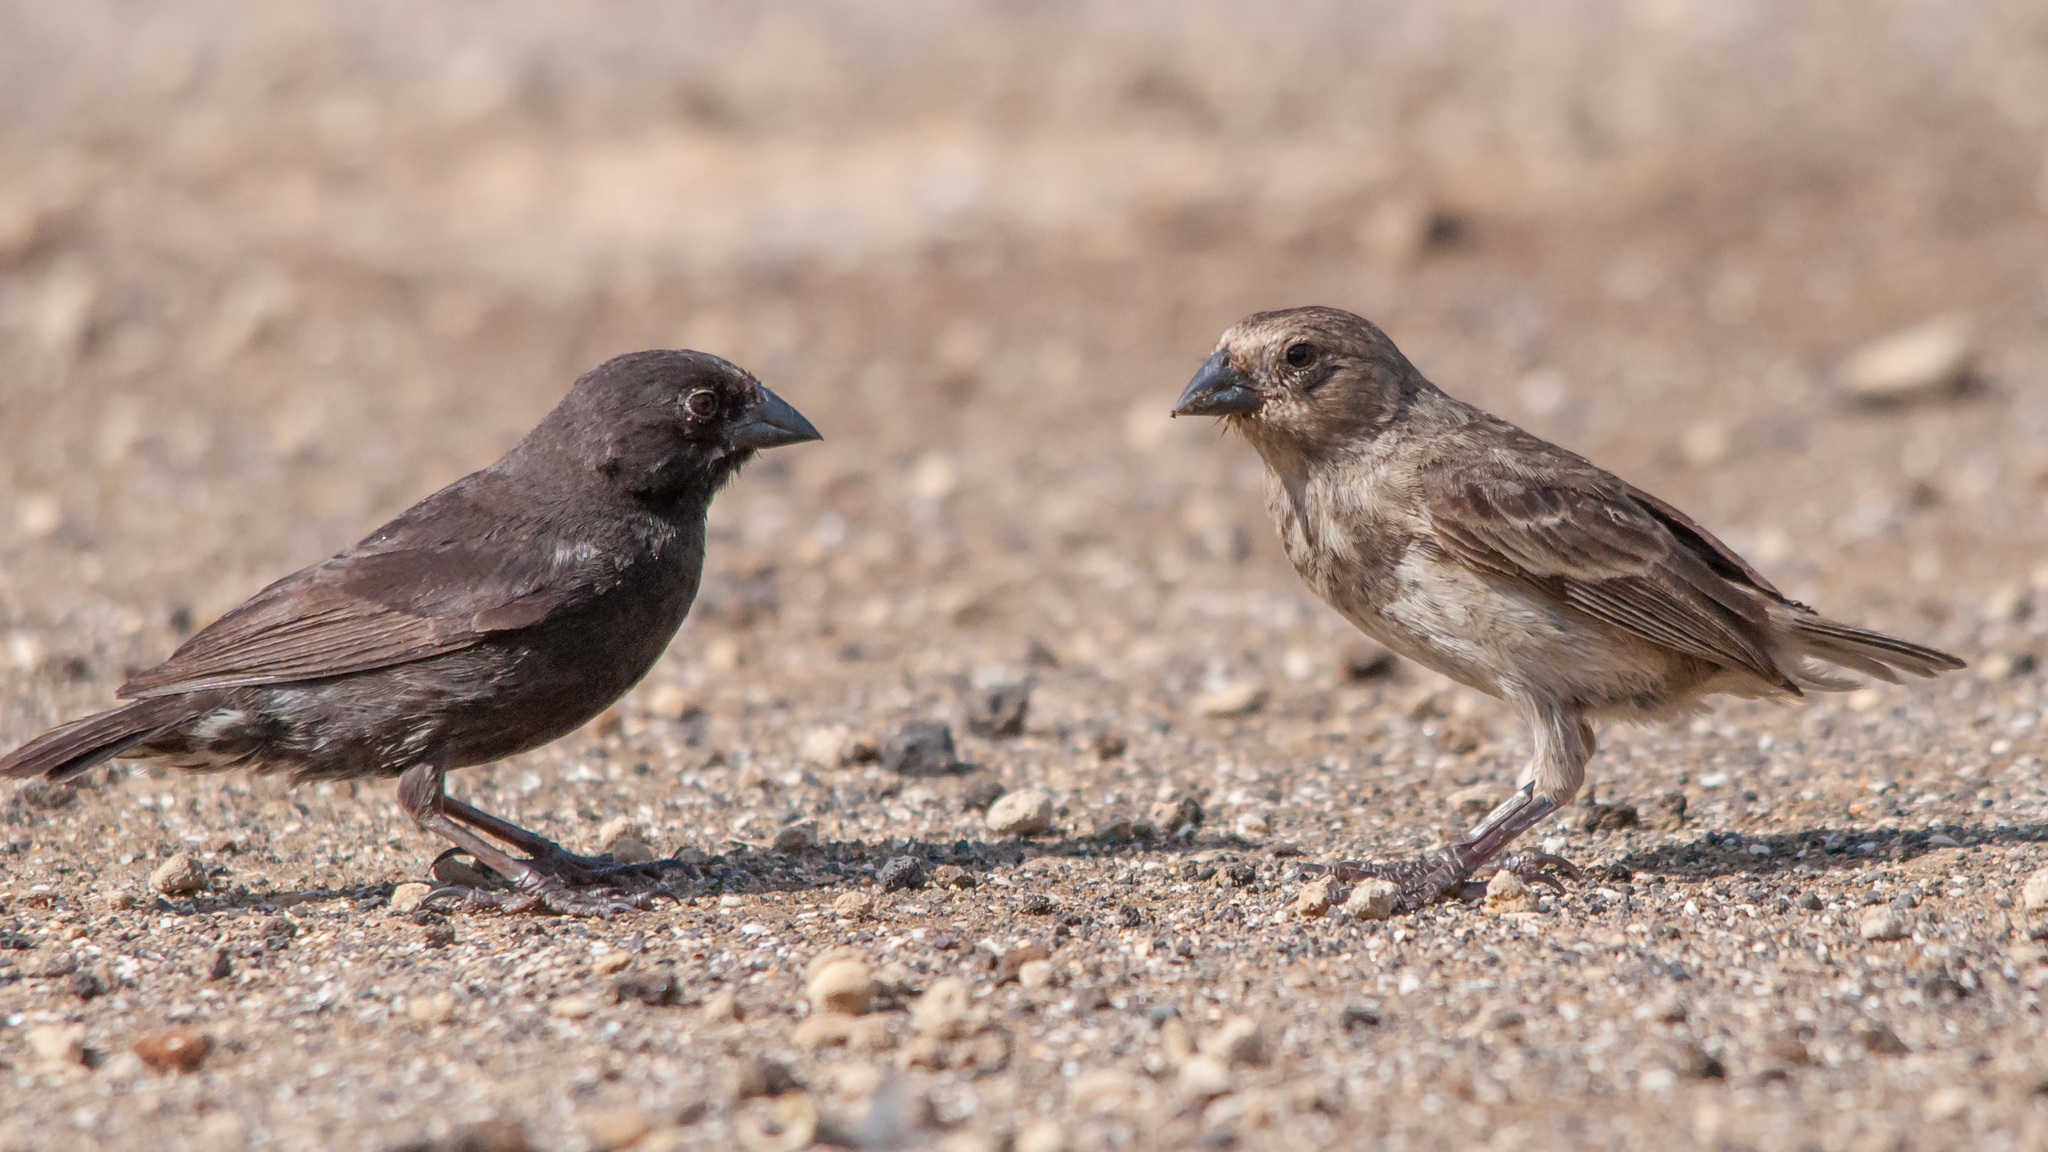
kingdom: Animalia
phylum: Chordata
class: Aves
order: Passeriformes
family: Thraupidae
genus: Geospiza
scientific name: Geospiza fuliginosa
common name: Small ground finch
